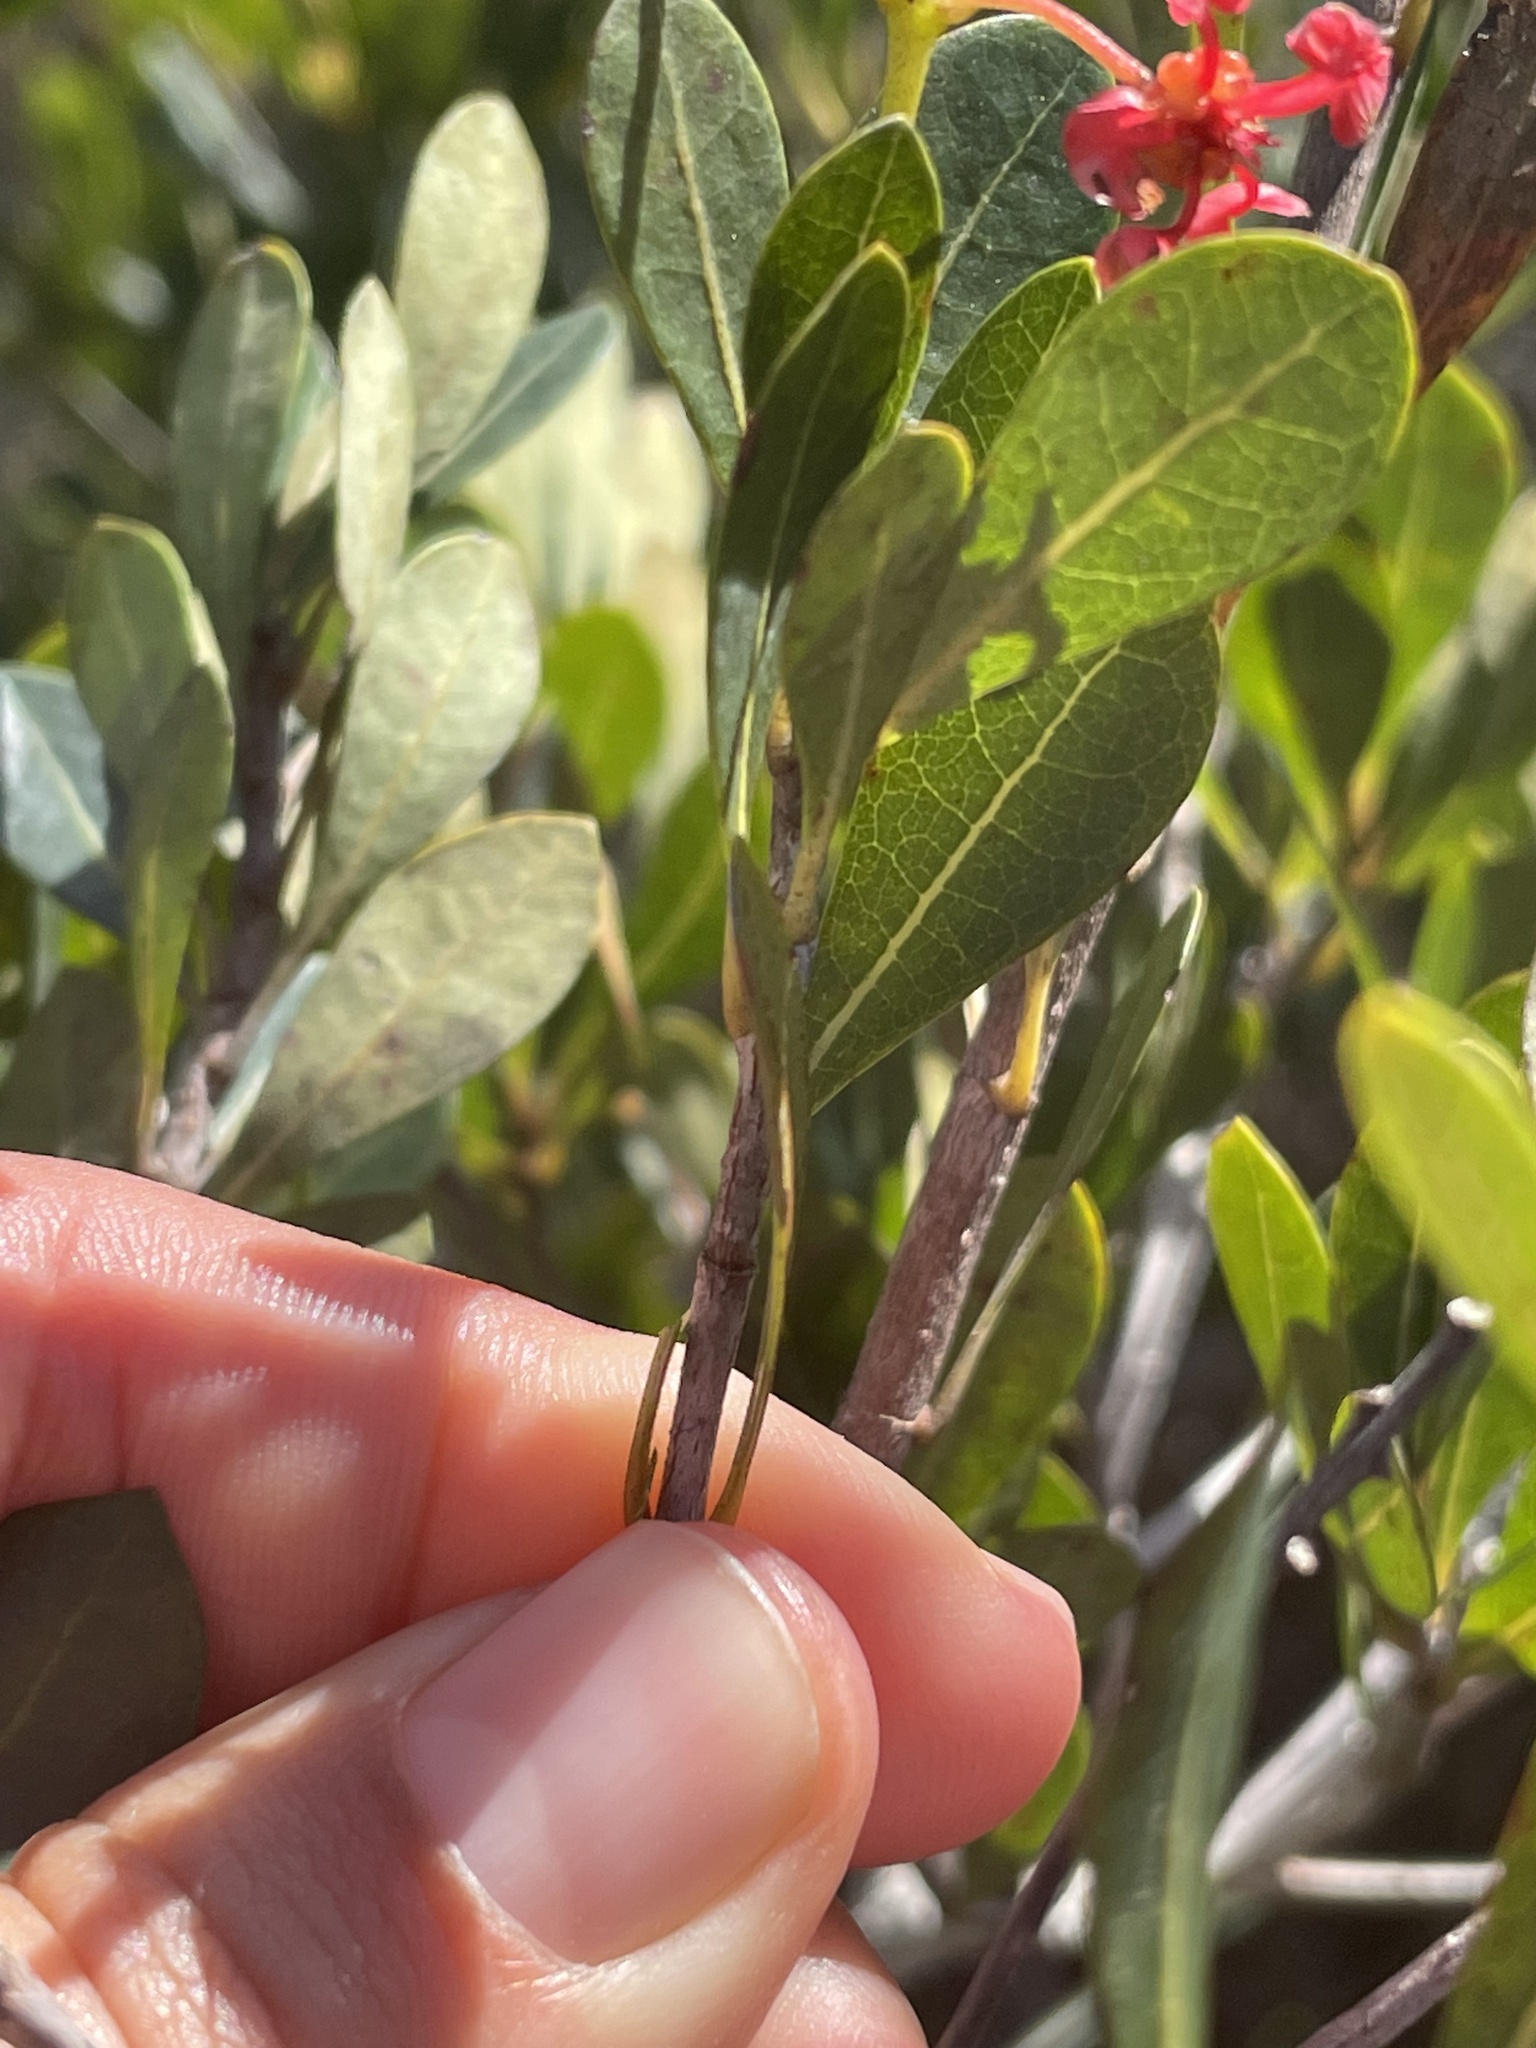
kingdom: Plantae
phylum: Tracheophyta
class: Magnoliopsida
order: Malpighiales
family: Malpighiaceae
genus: Byrsonima
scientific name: Byrsonima lucida
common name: Clam-cherry
